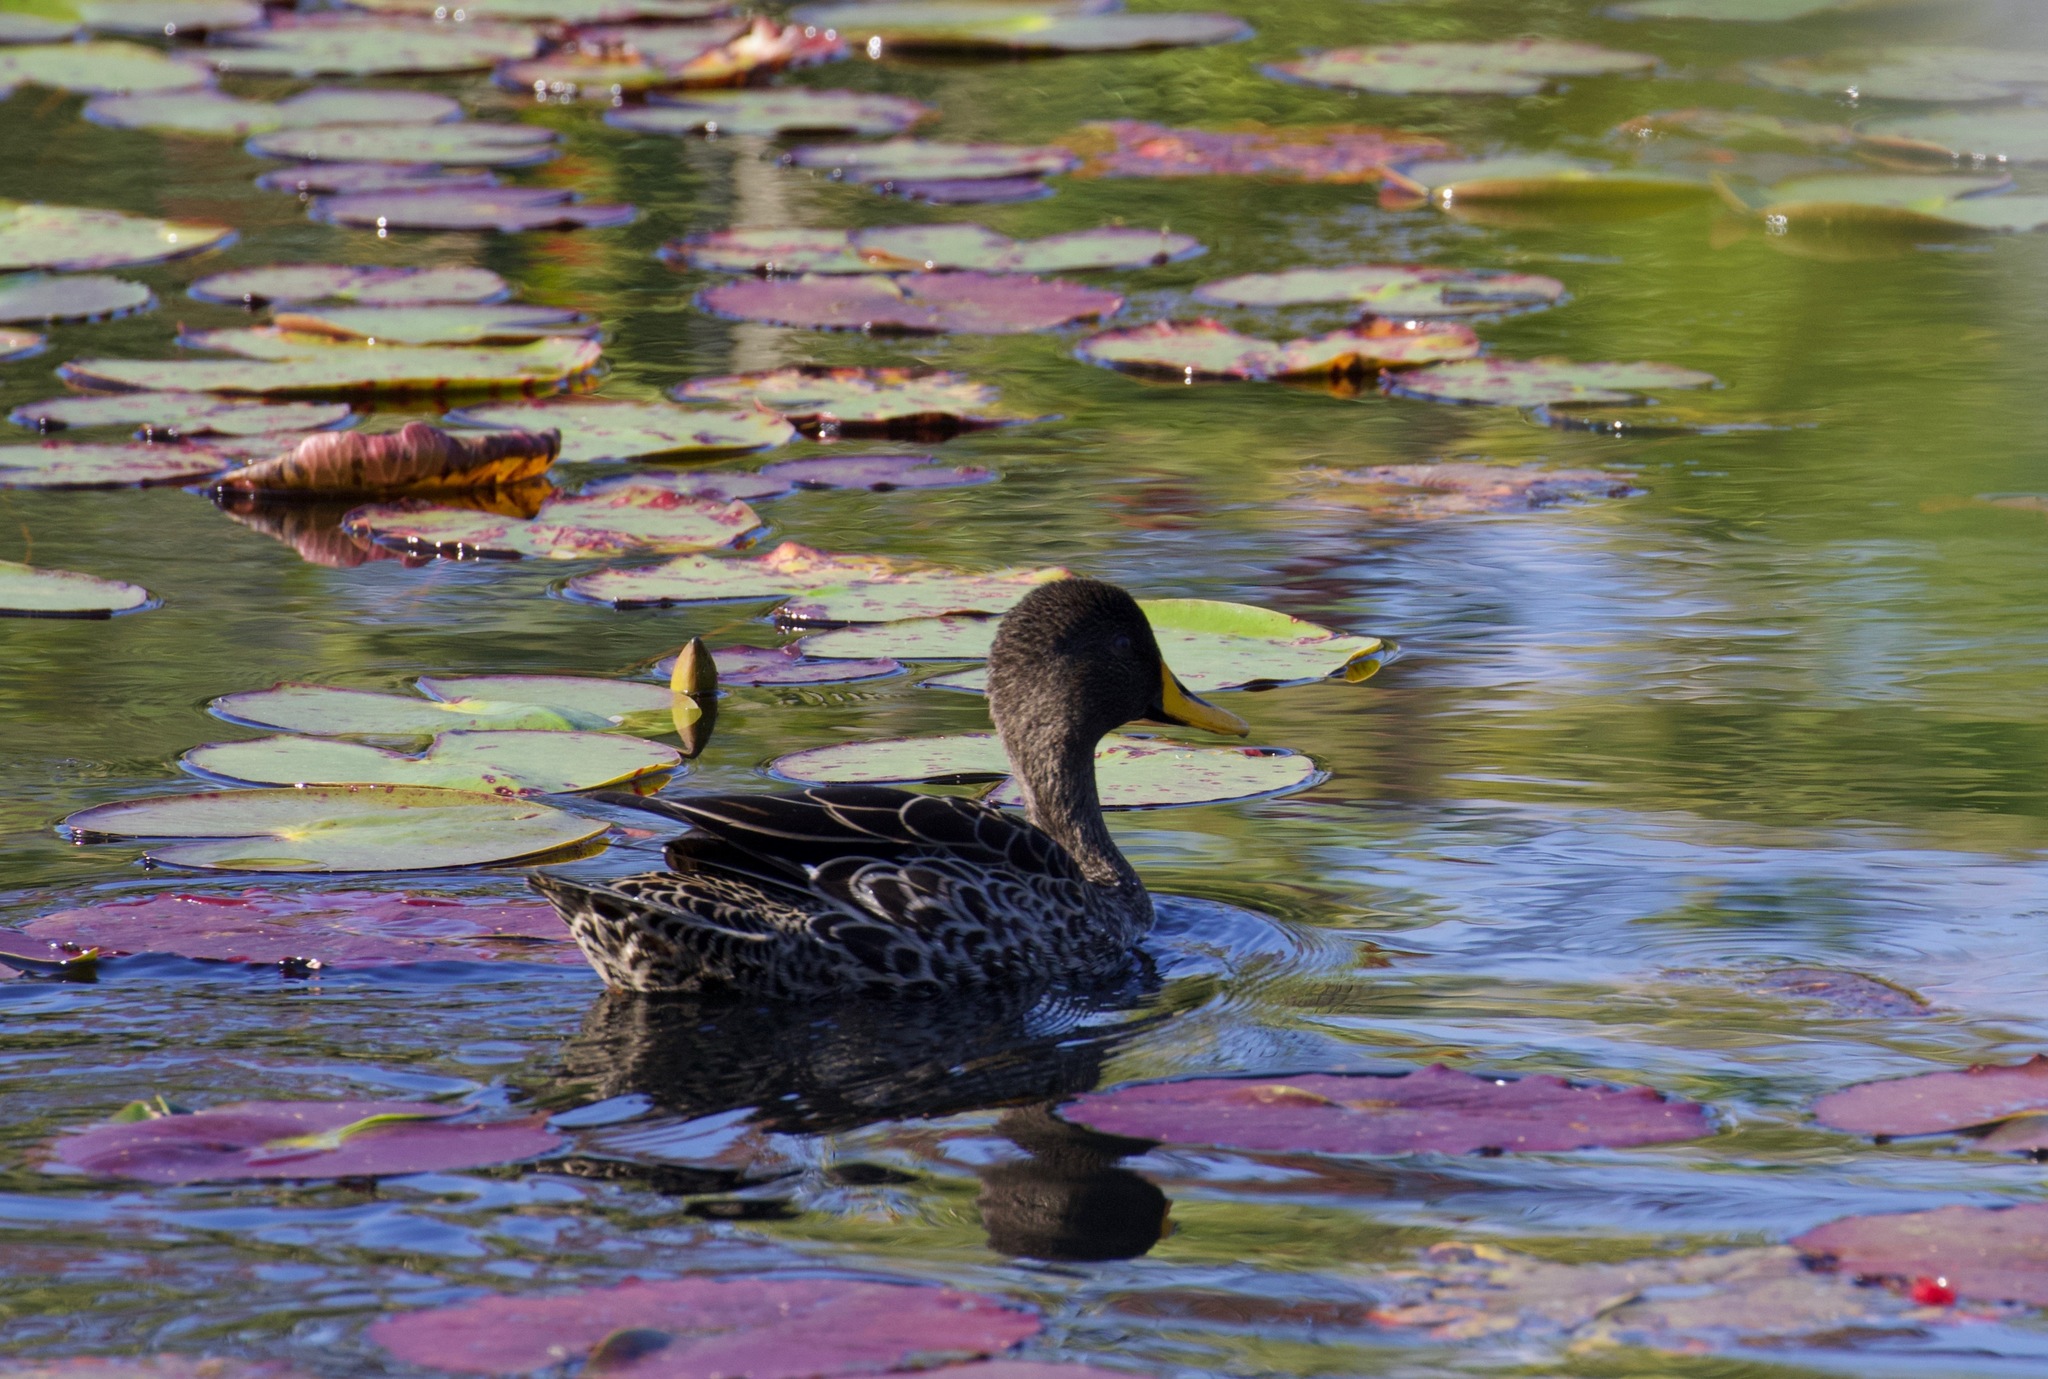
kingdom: Animalia
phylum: Chordata
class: Aves
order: Anseriformes
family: Anatidae
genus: Anas
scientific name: Anas undulata
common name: Yellow-billed duck
